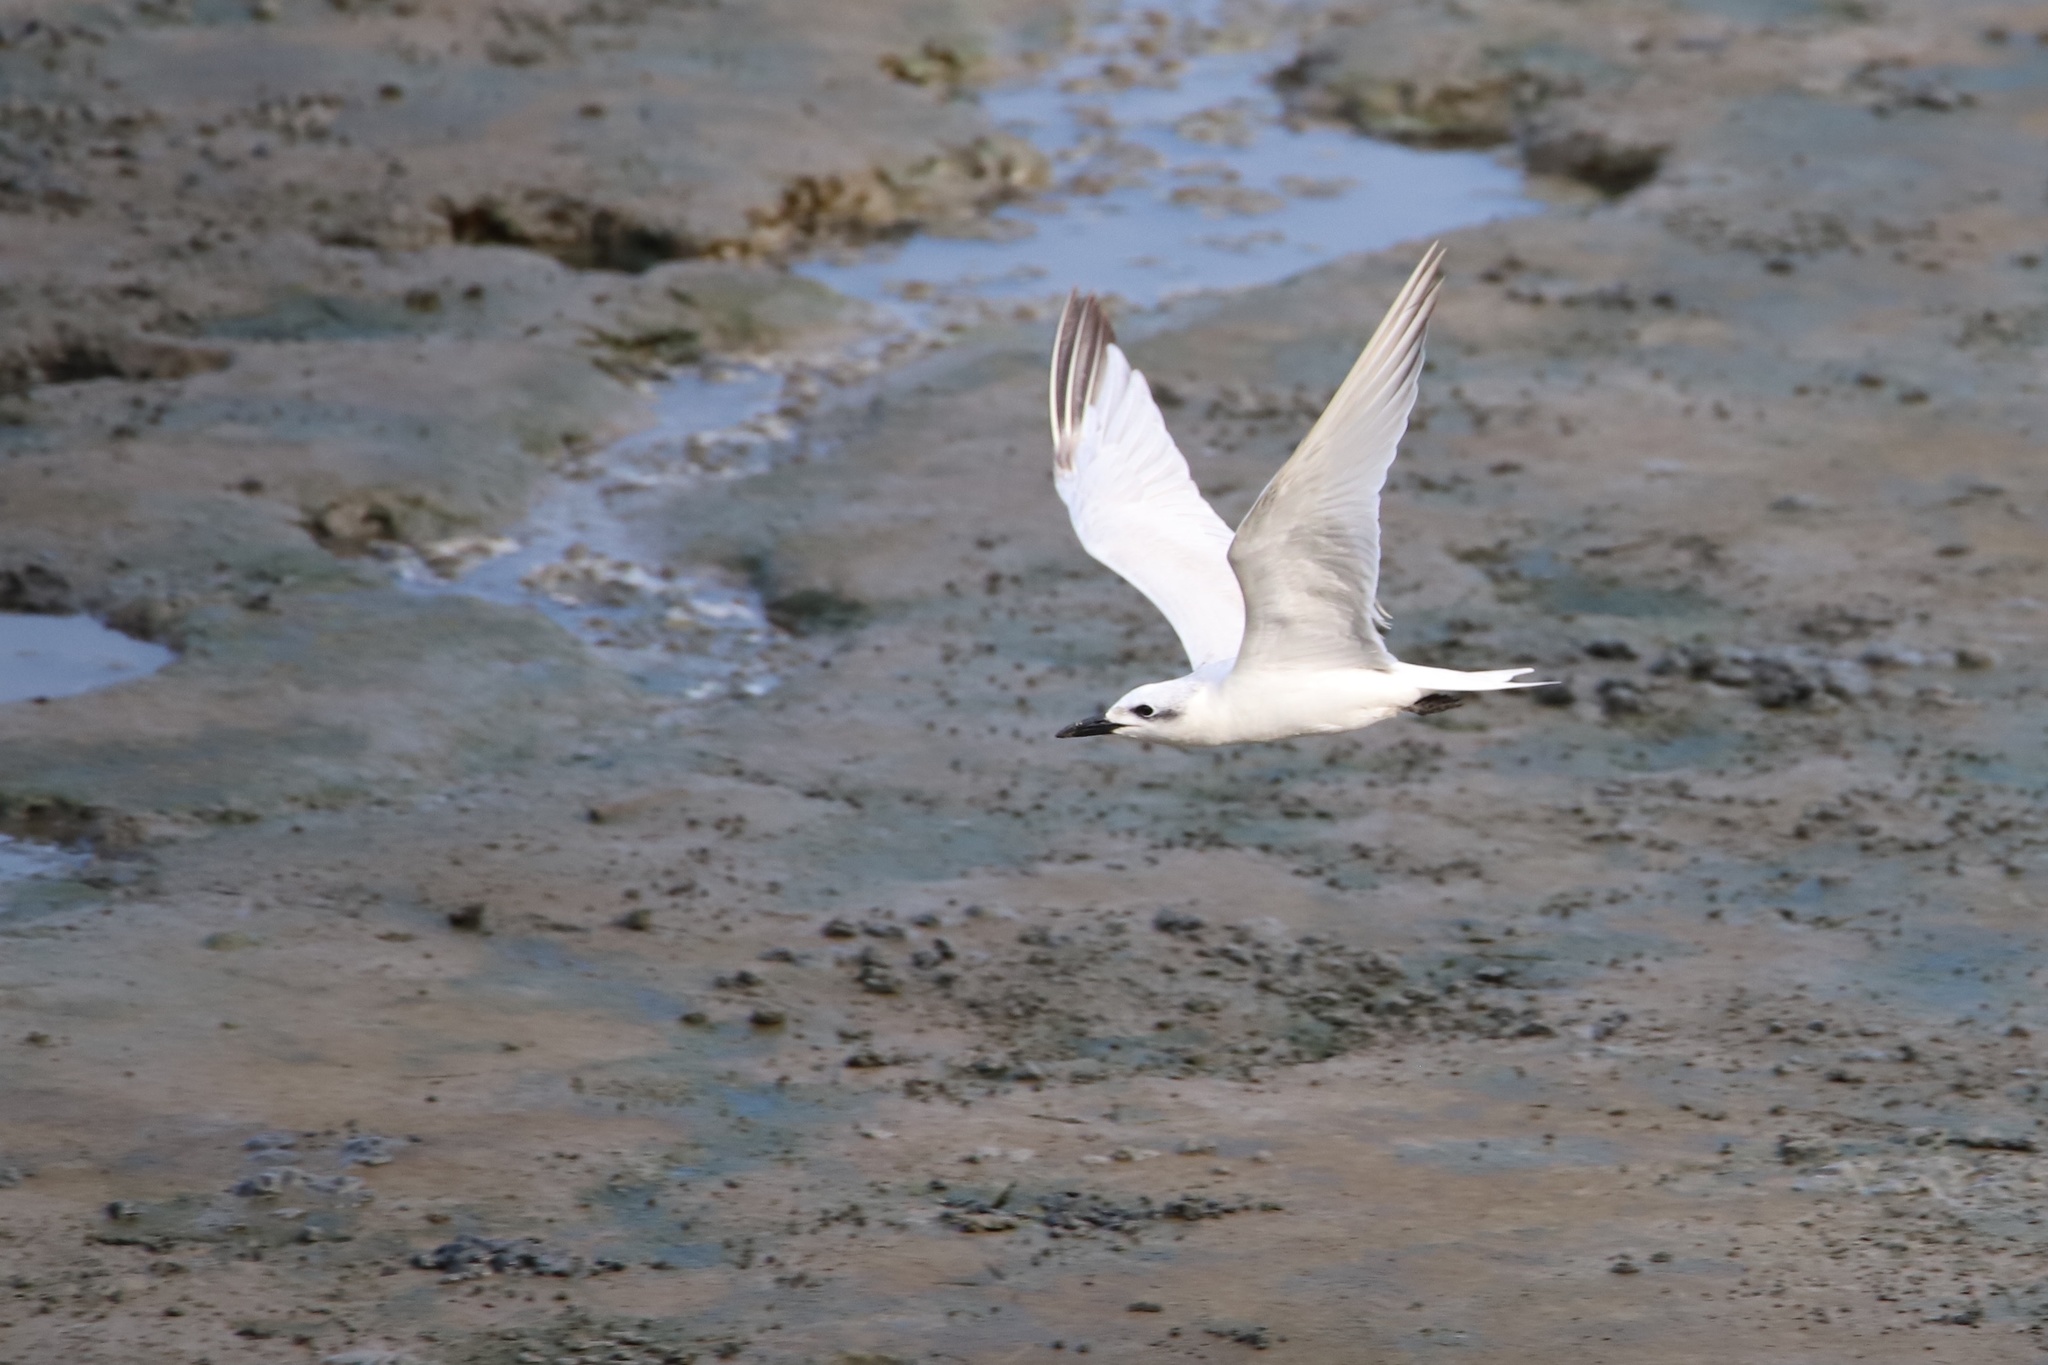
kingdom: Animalia
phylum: Chordata
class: Aves
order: Charadriiformes
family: Laridae
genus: Gelochelidon
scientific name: Gelochelidon nilotica
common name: Gull-billed tern
